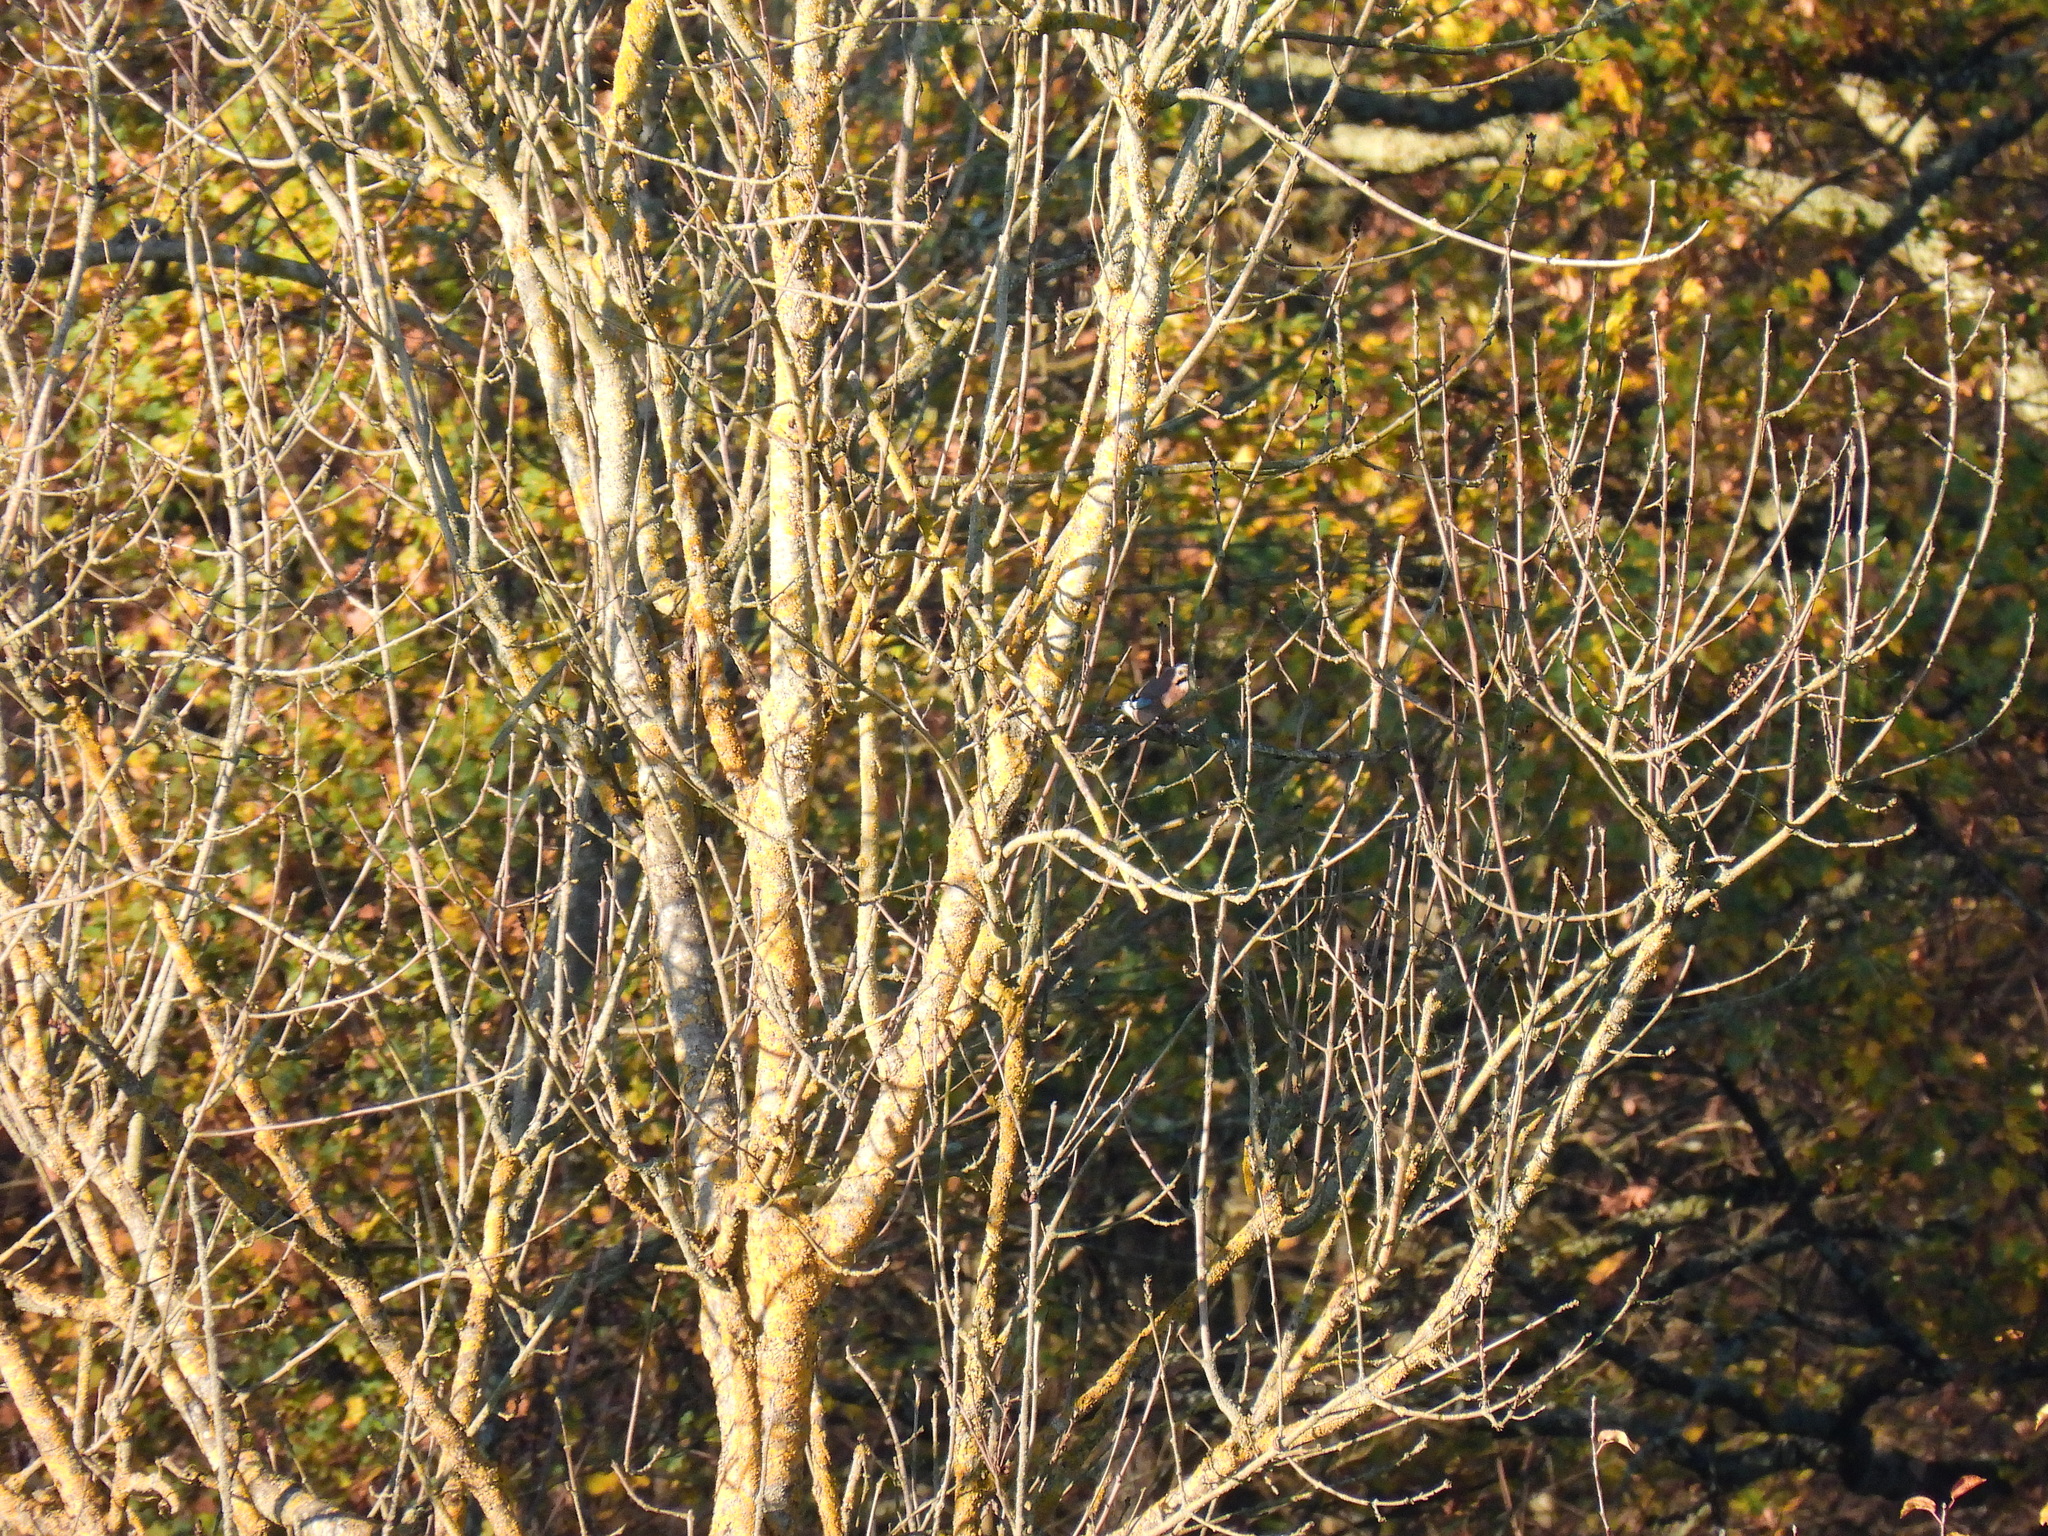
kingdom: Animalia
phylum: Chordata
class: Aves
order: Passeriformes
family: Corvidae
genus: Garrulus
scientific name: Garrulus glandarius
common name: Eurasian jay
